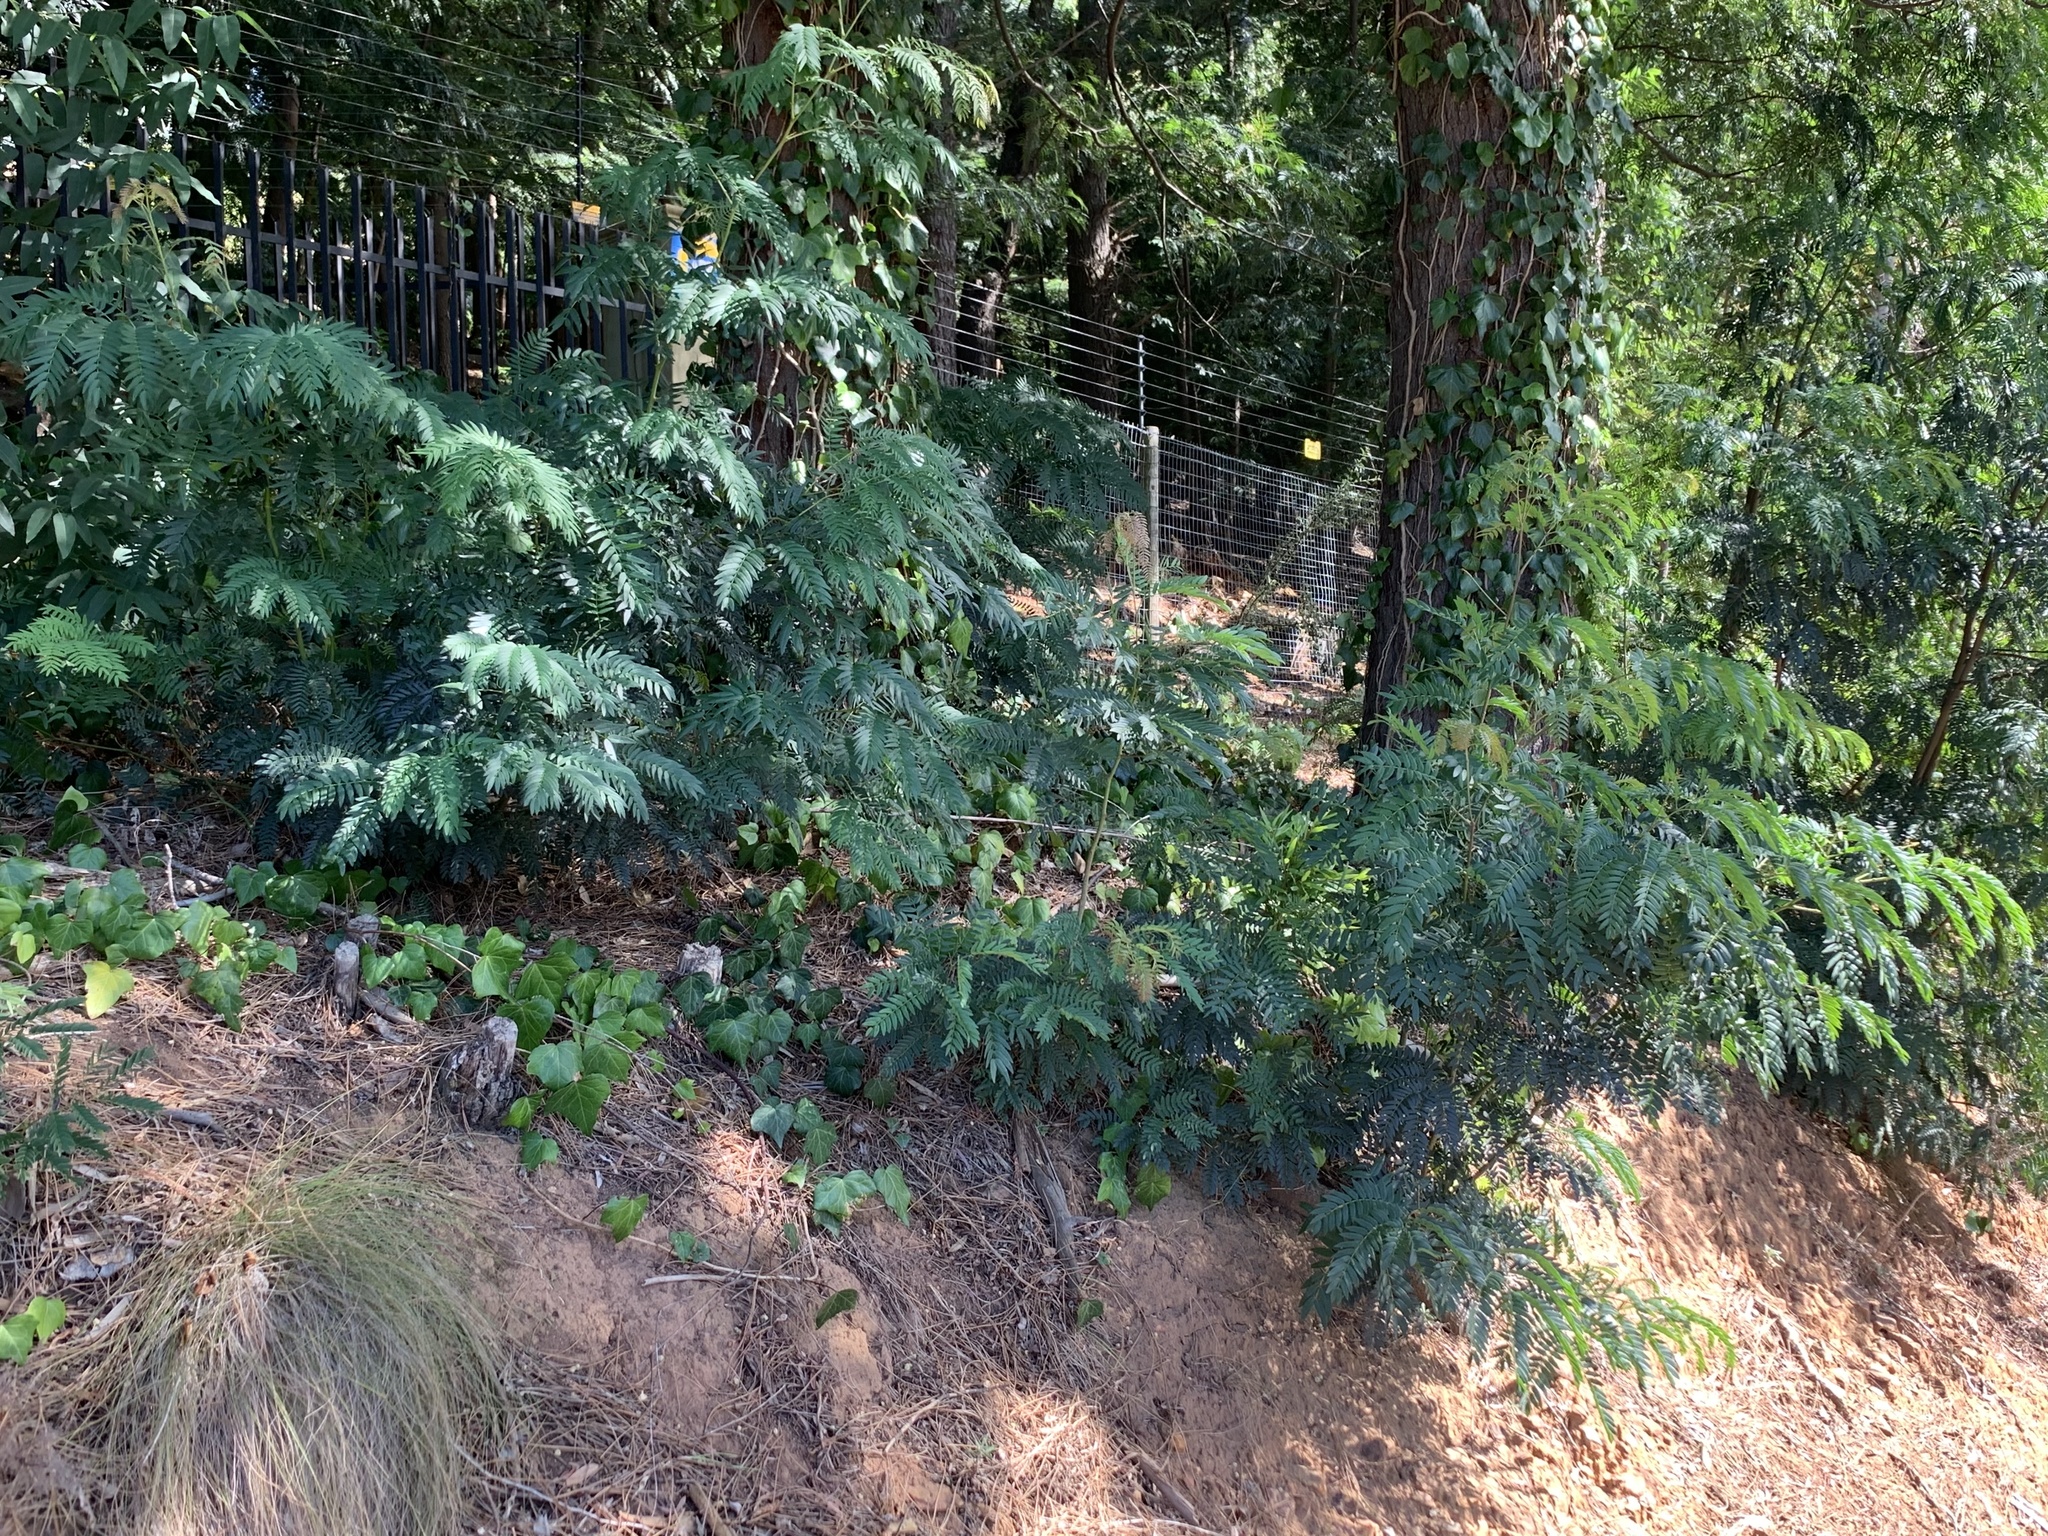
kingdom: Plantae
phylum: Tracheophyta
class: Magnoliopsida
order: Fabales
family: Fabaceae
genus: Acacia
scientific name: Acacia elata
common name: Cedar wattle
